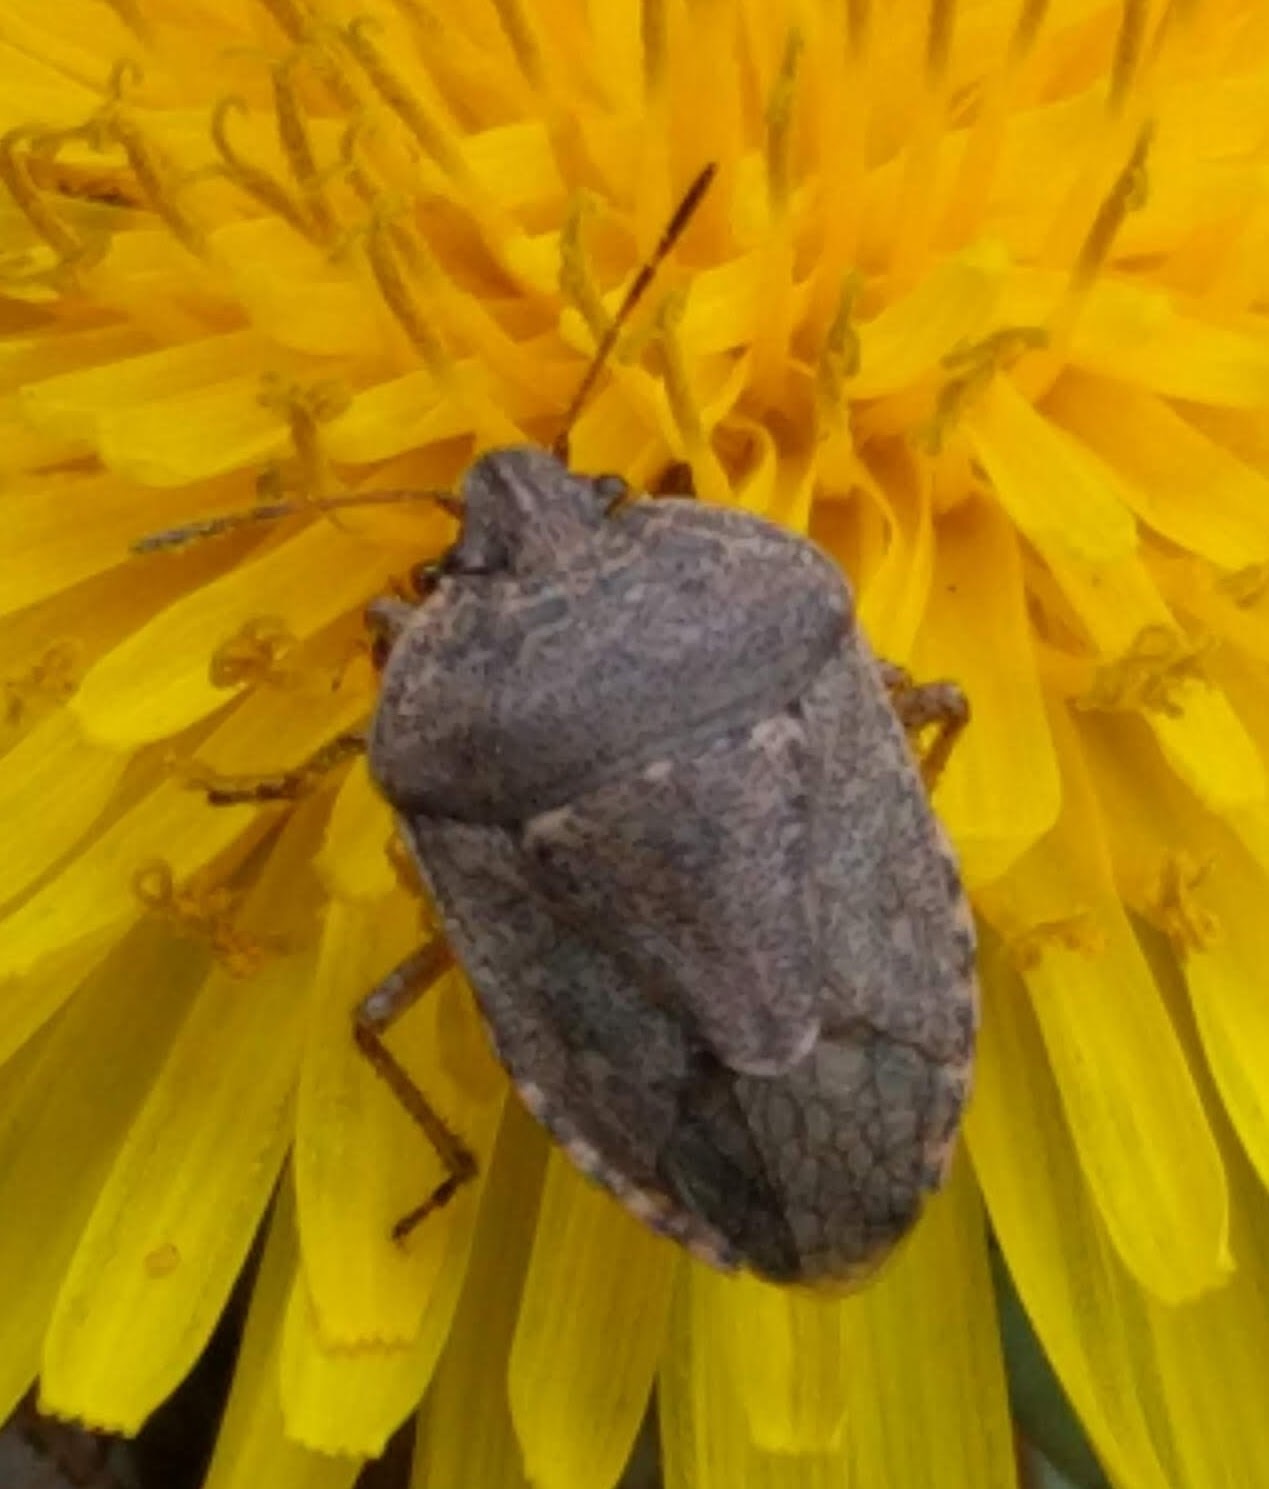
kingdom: Animalia
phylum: Arthropoda
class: Insecta
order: Hemiptera
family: Pentatomidae
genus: Hymenarcys
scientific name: Hymenarcys nervosa
